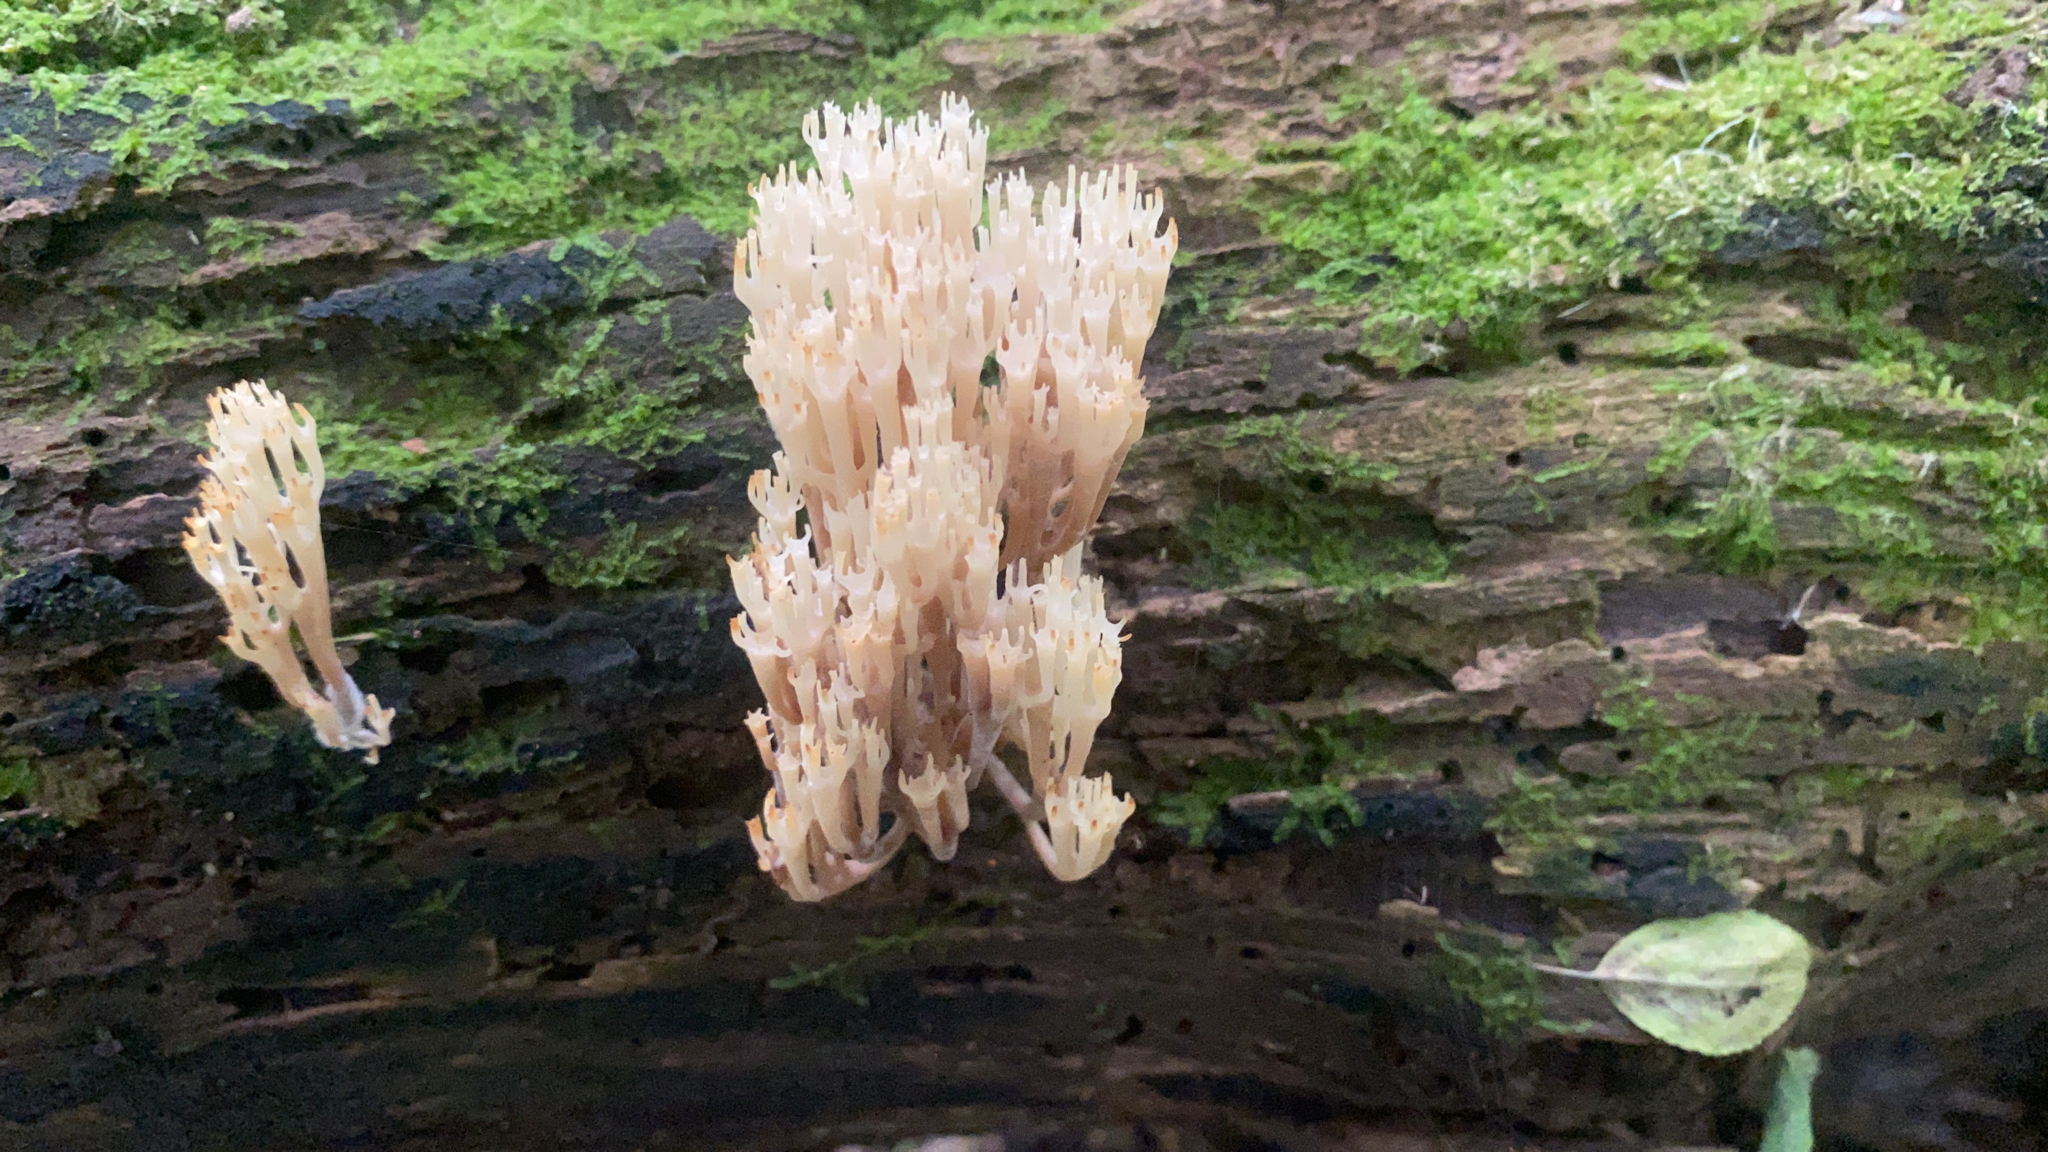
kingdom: Fungi
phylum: Basidiomycota
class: Agaricomycetes
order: Russulales
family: Auriscalpiaceae
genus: Artomyces
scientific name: Artomyces pyxidatus
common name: Crown-tipped coral fungus
